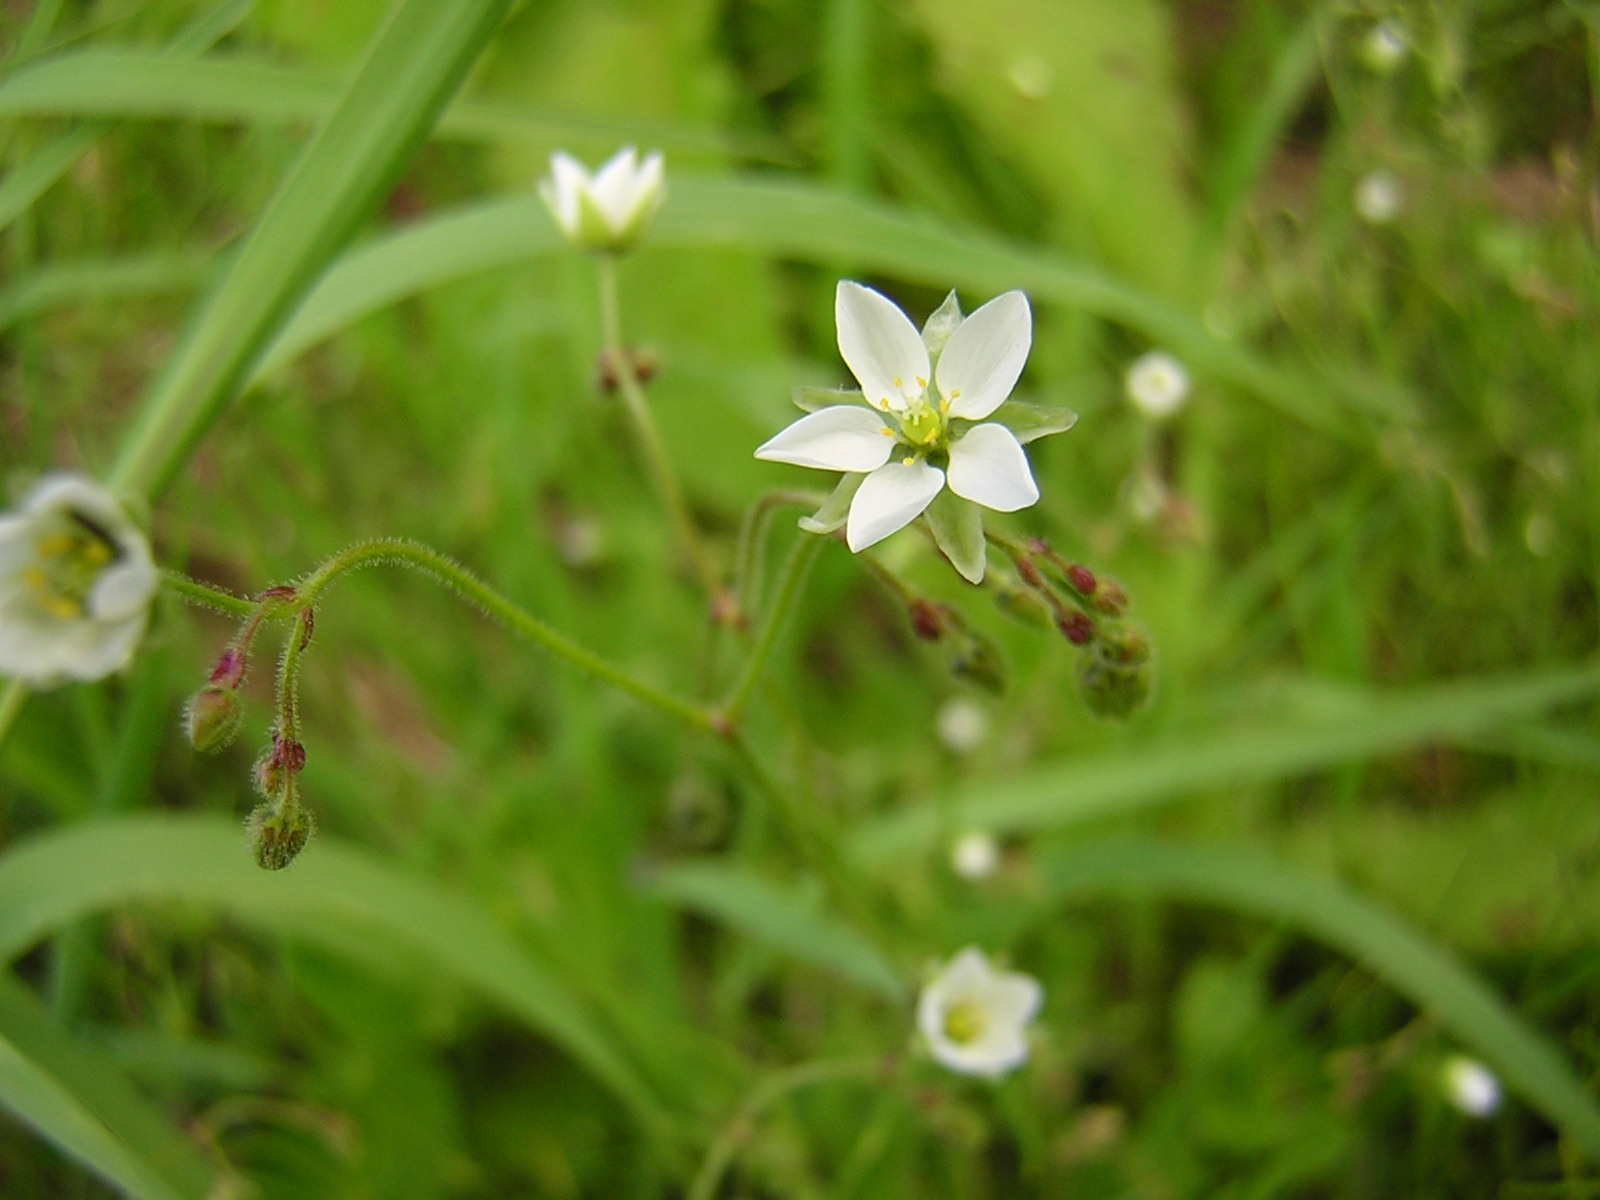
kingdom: Plantae
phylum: Tracheophyta
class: Magnoliopsida
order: Caryophyllales
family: Caryophyllaceae
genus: Spergula
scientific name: Spergula arvensis
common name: Corn spurrey
